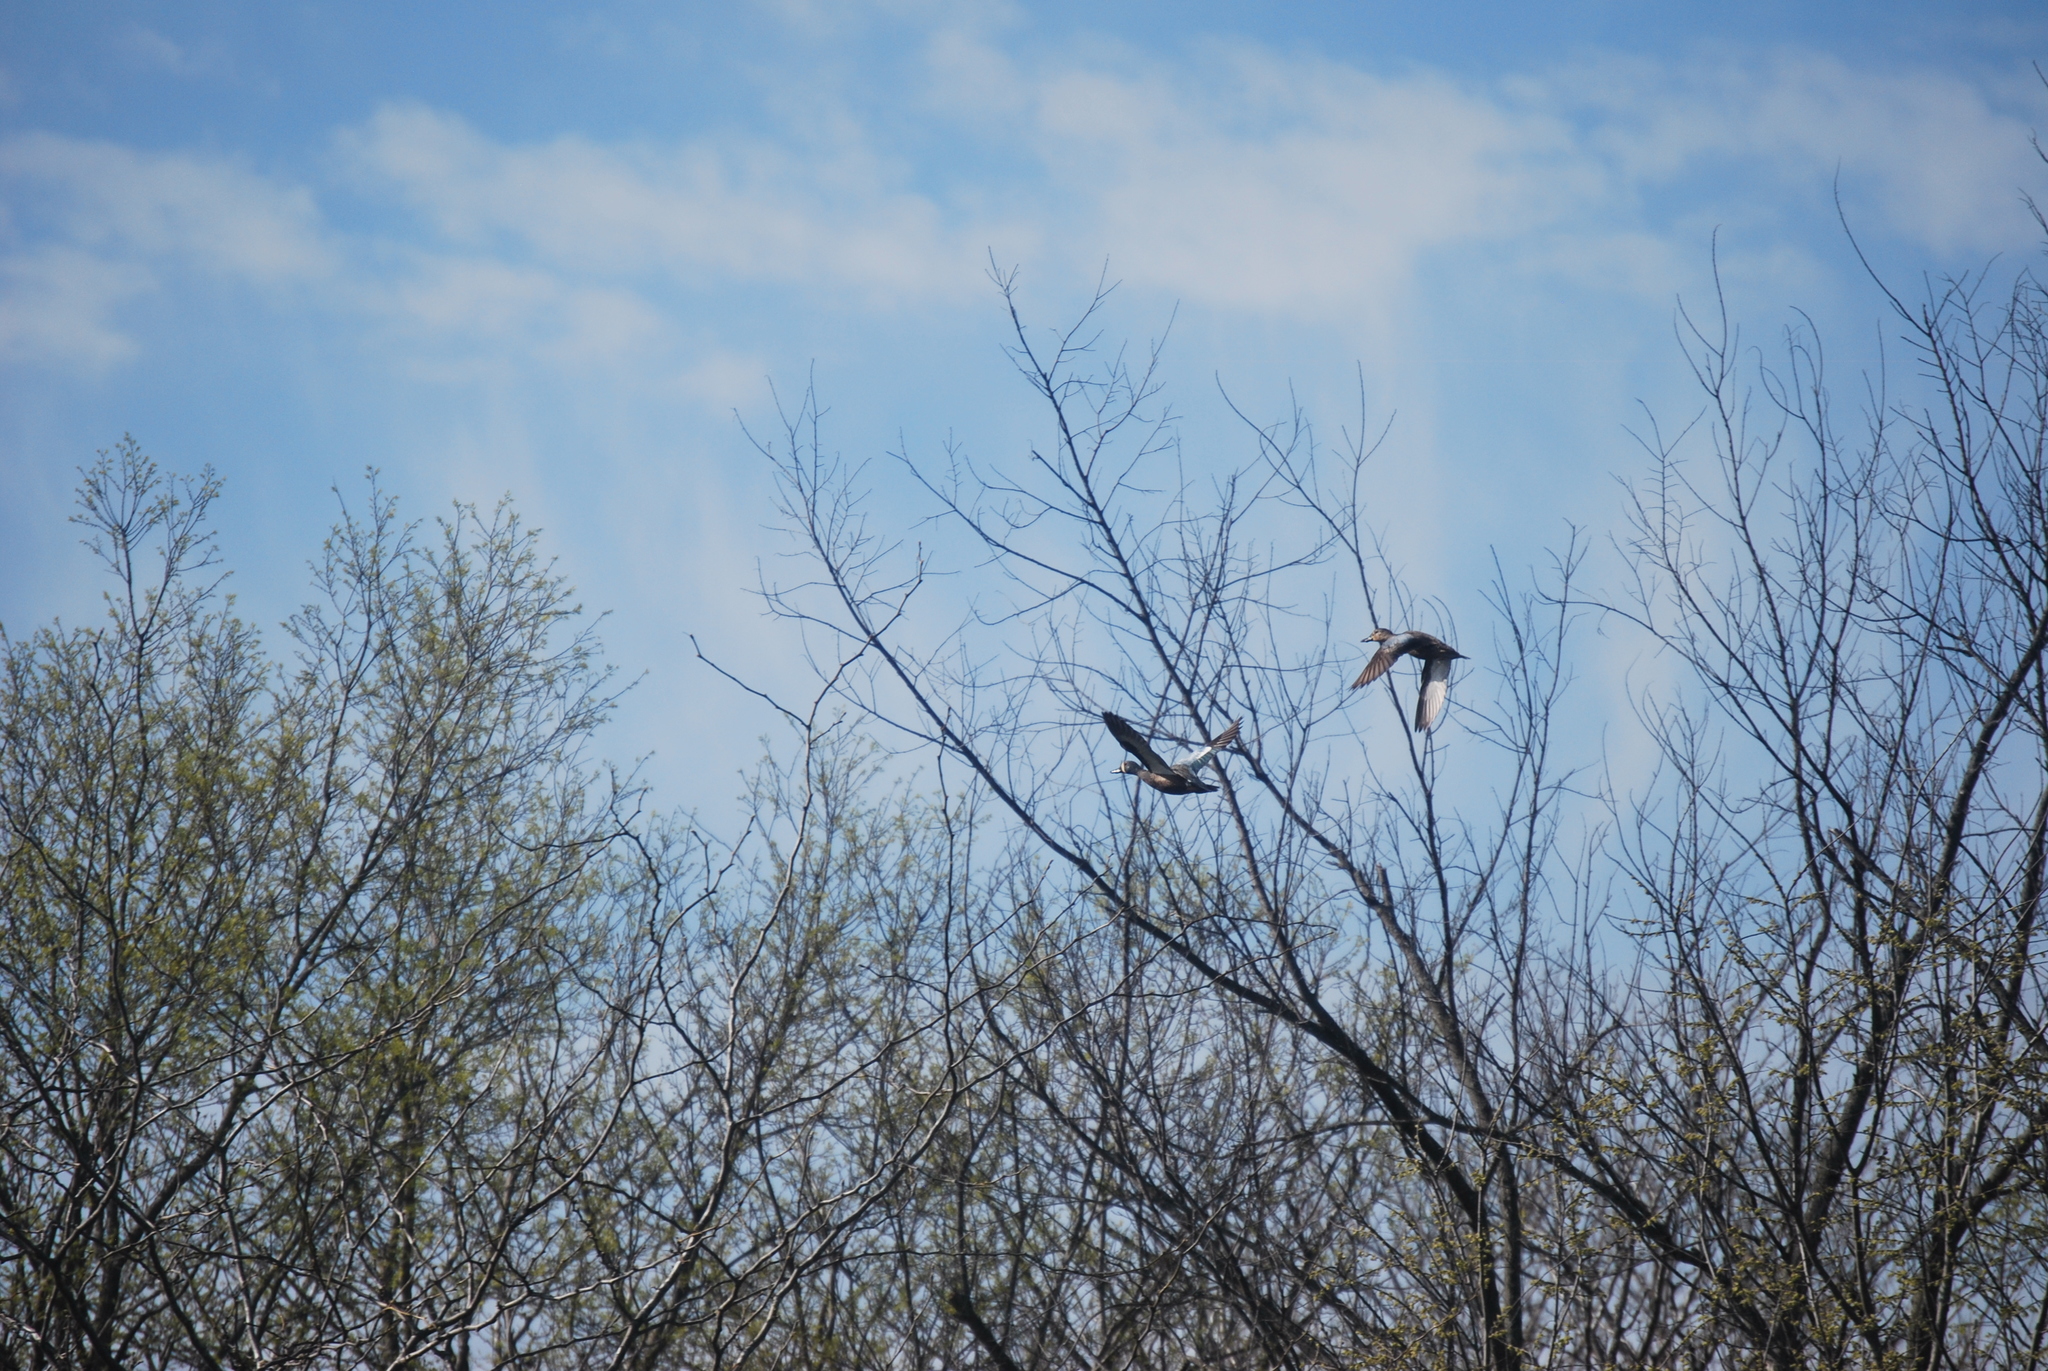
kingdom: Animalia
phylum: Chordata
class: Aves
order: Anseriformes
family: Anatidae
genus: Spatula
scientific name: Spatula discors
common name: Blue-winged teal
